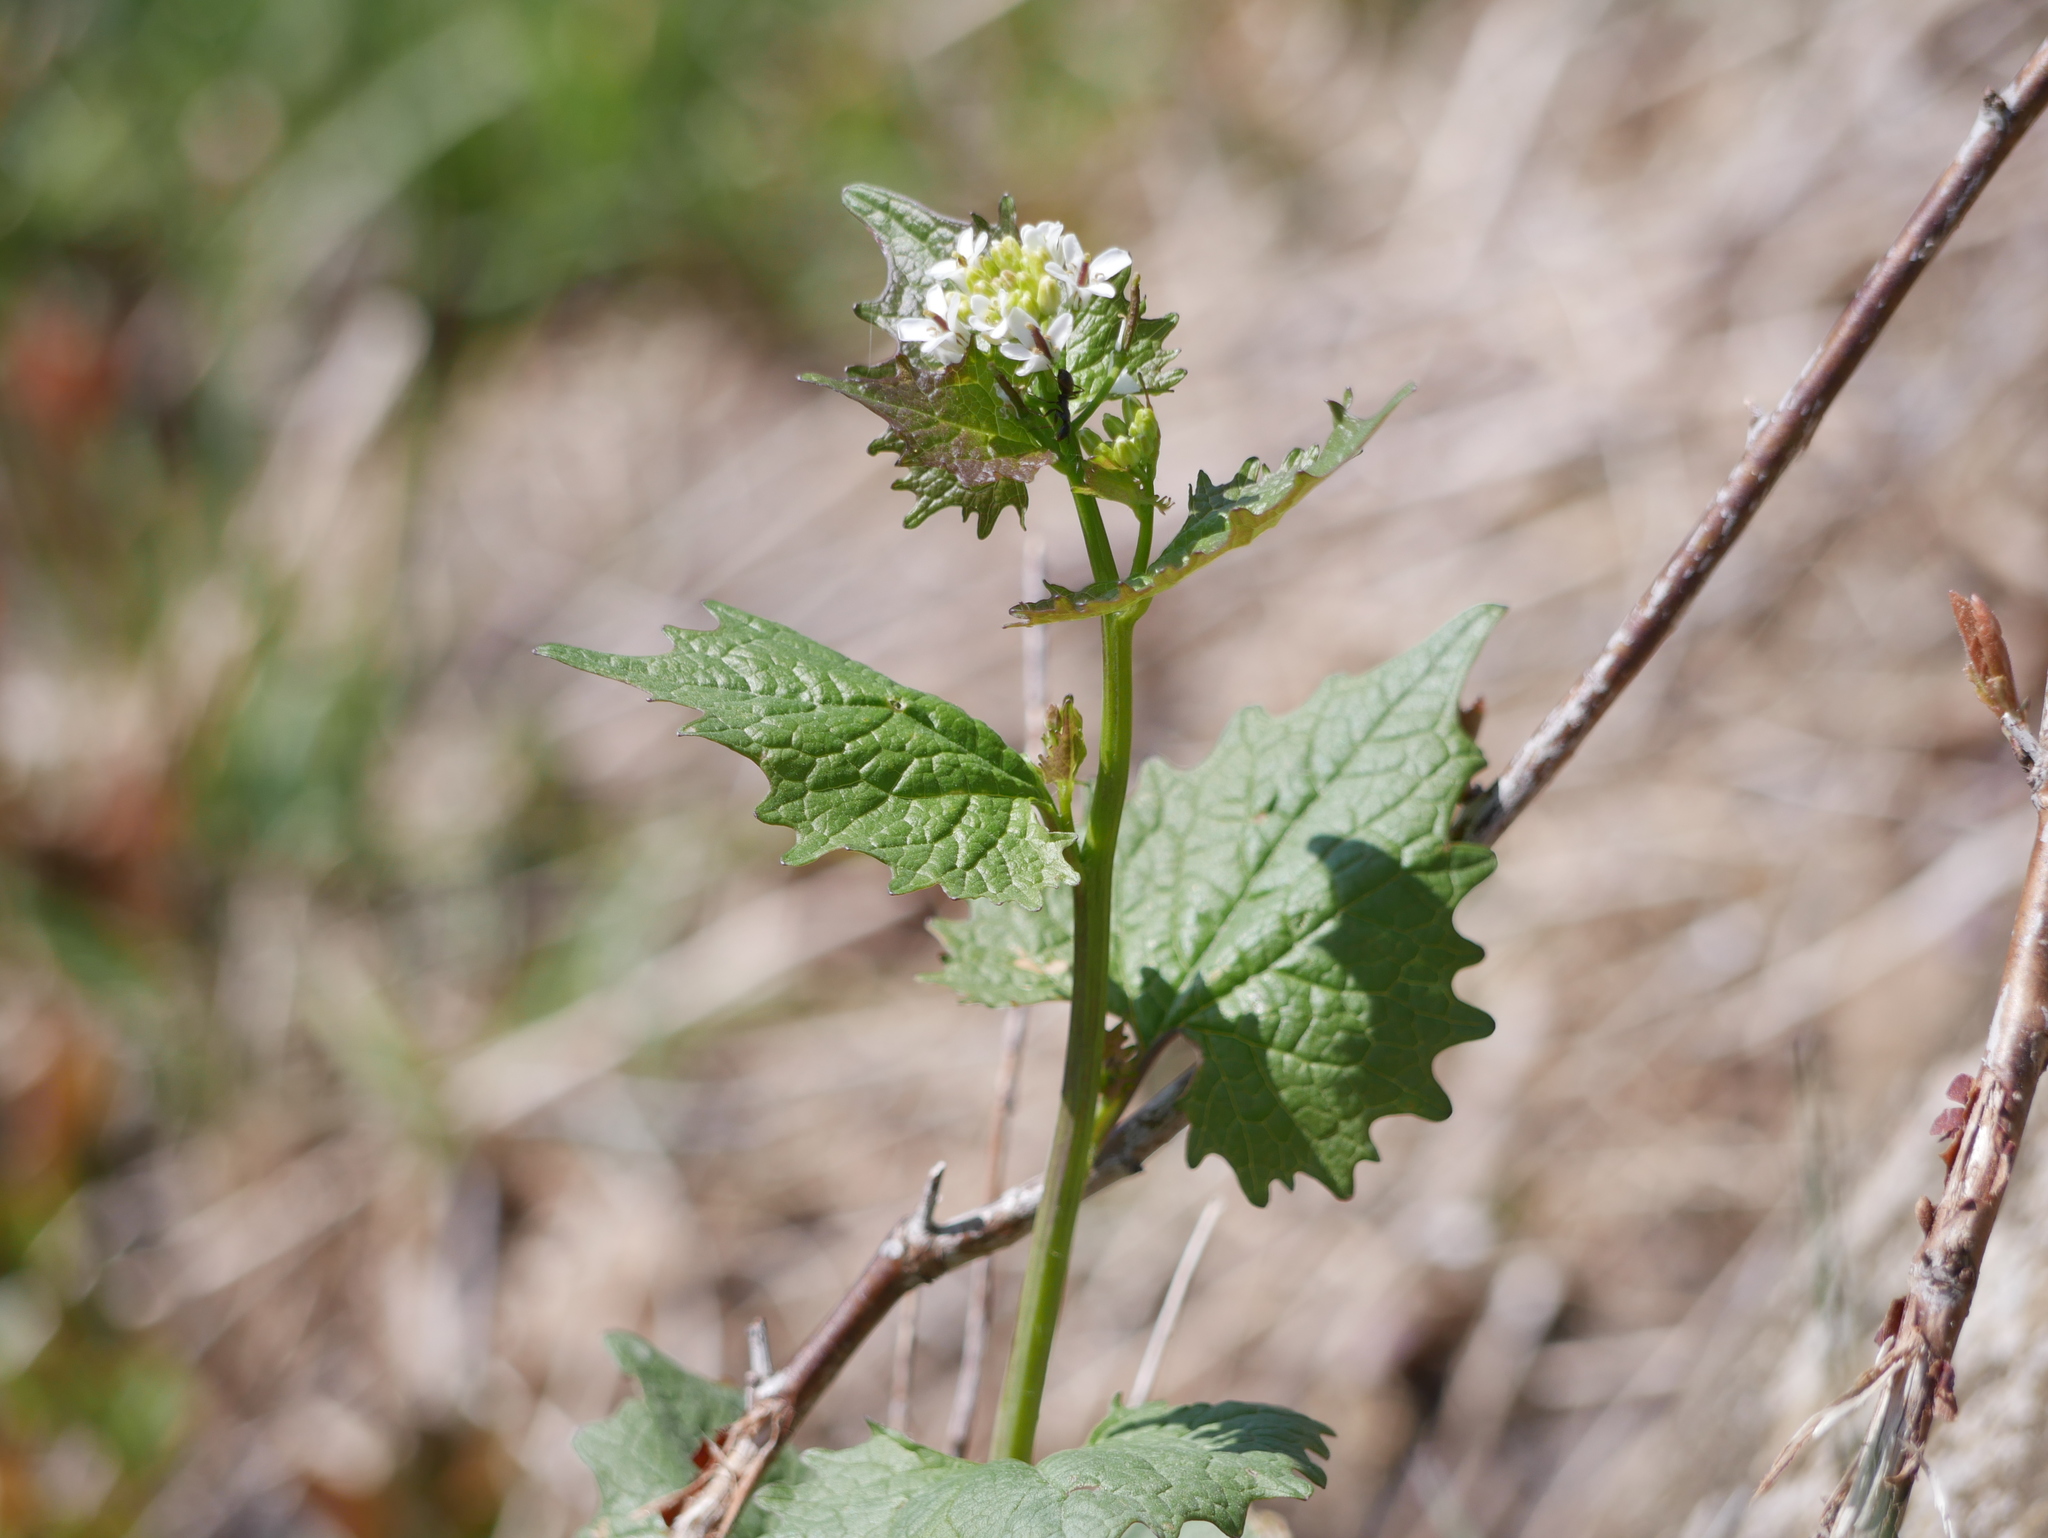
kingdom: Plantae
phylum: Tracheophyta
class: Magnoliopsida
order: Brassicales
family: Brassicaceae
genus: Alliaria
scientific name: Alliaria petiolata
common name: Garlic mustard
